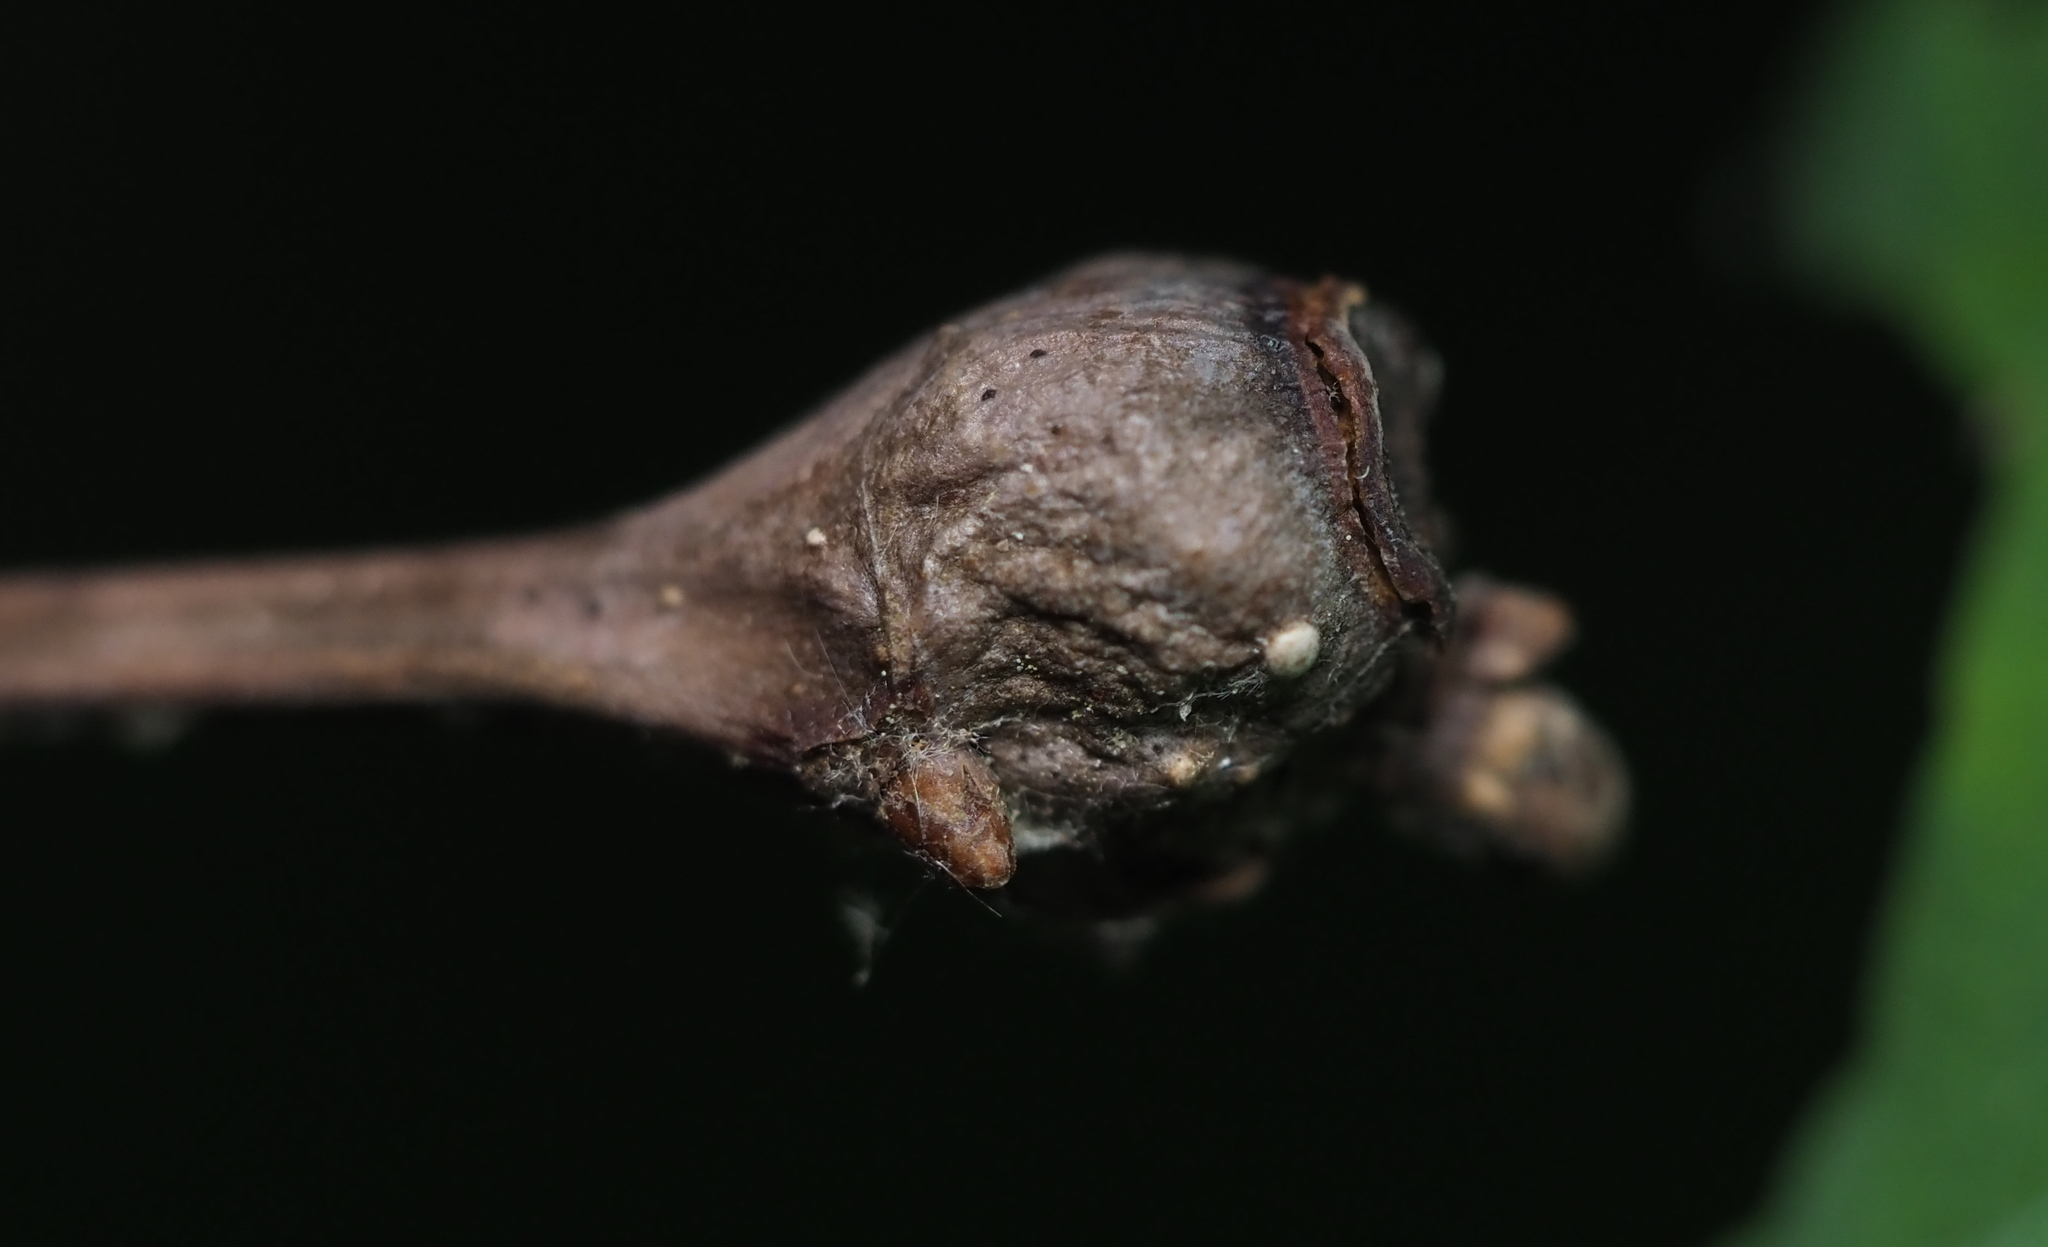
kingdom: Animalia
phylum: Arthropoda
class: Insecta
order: Hymenoptera
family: Cynipidae
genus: Callirhytis
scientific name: Callirhytis clavula
